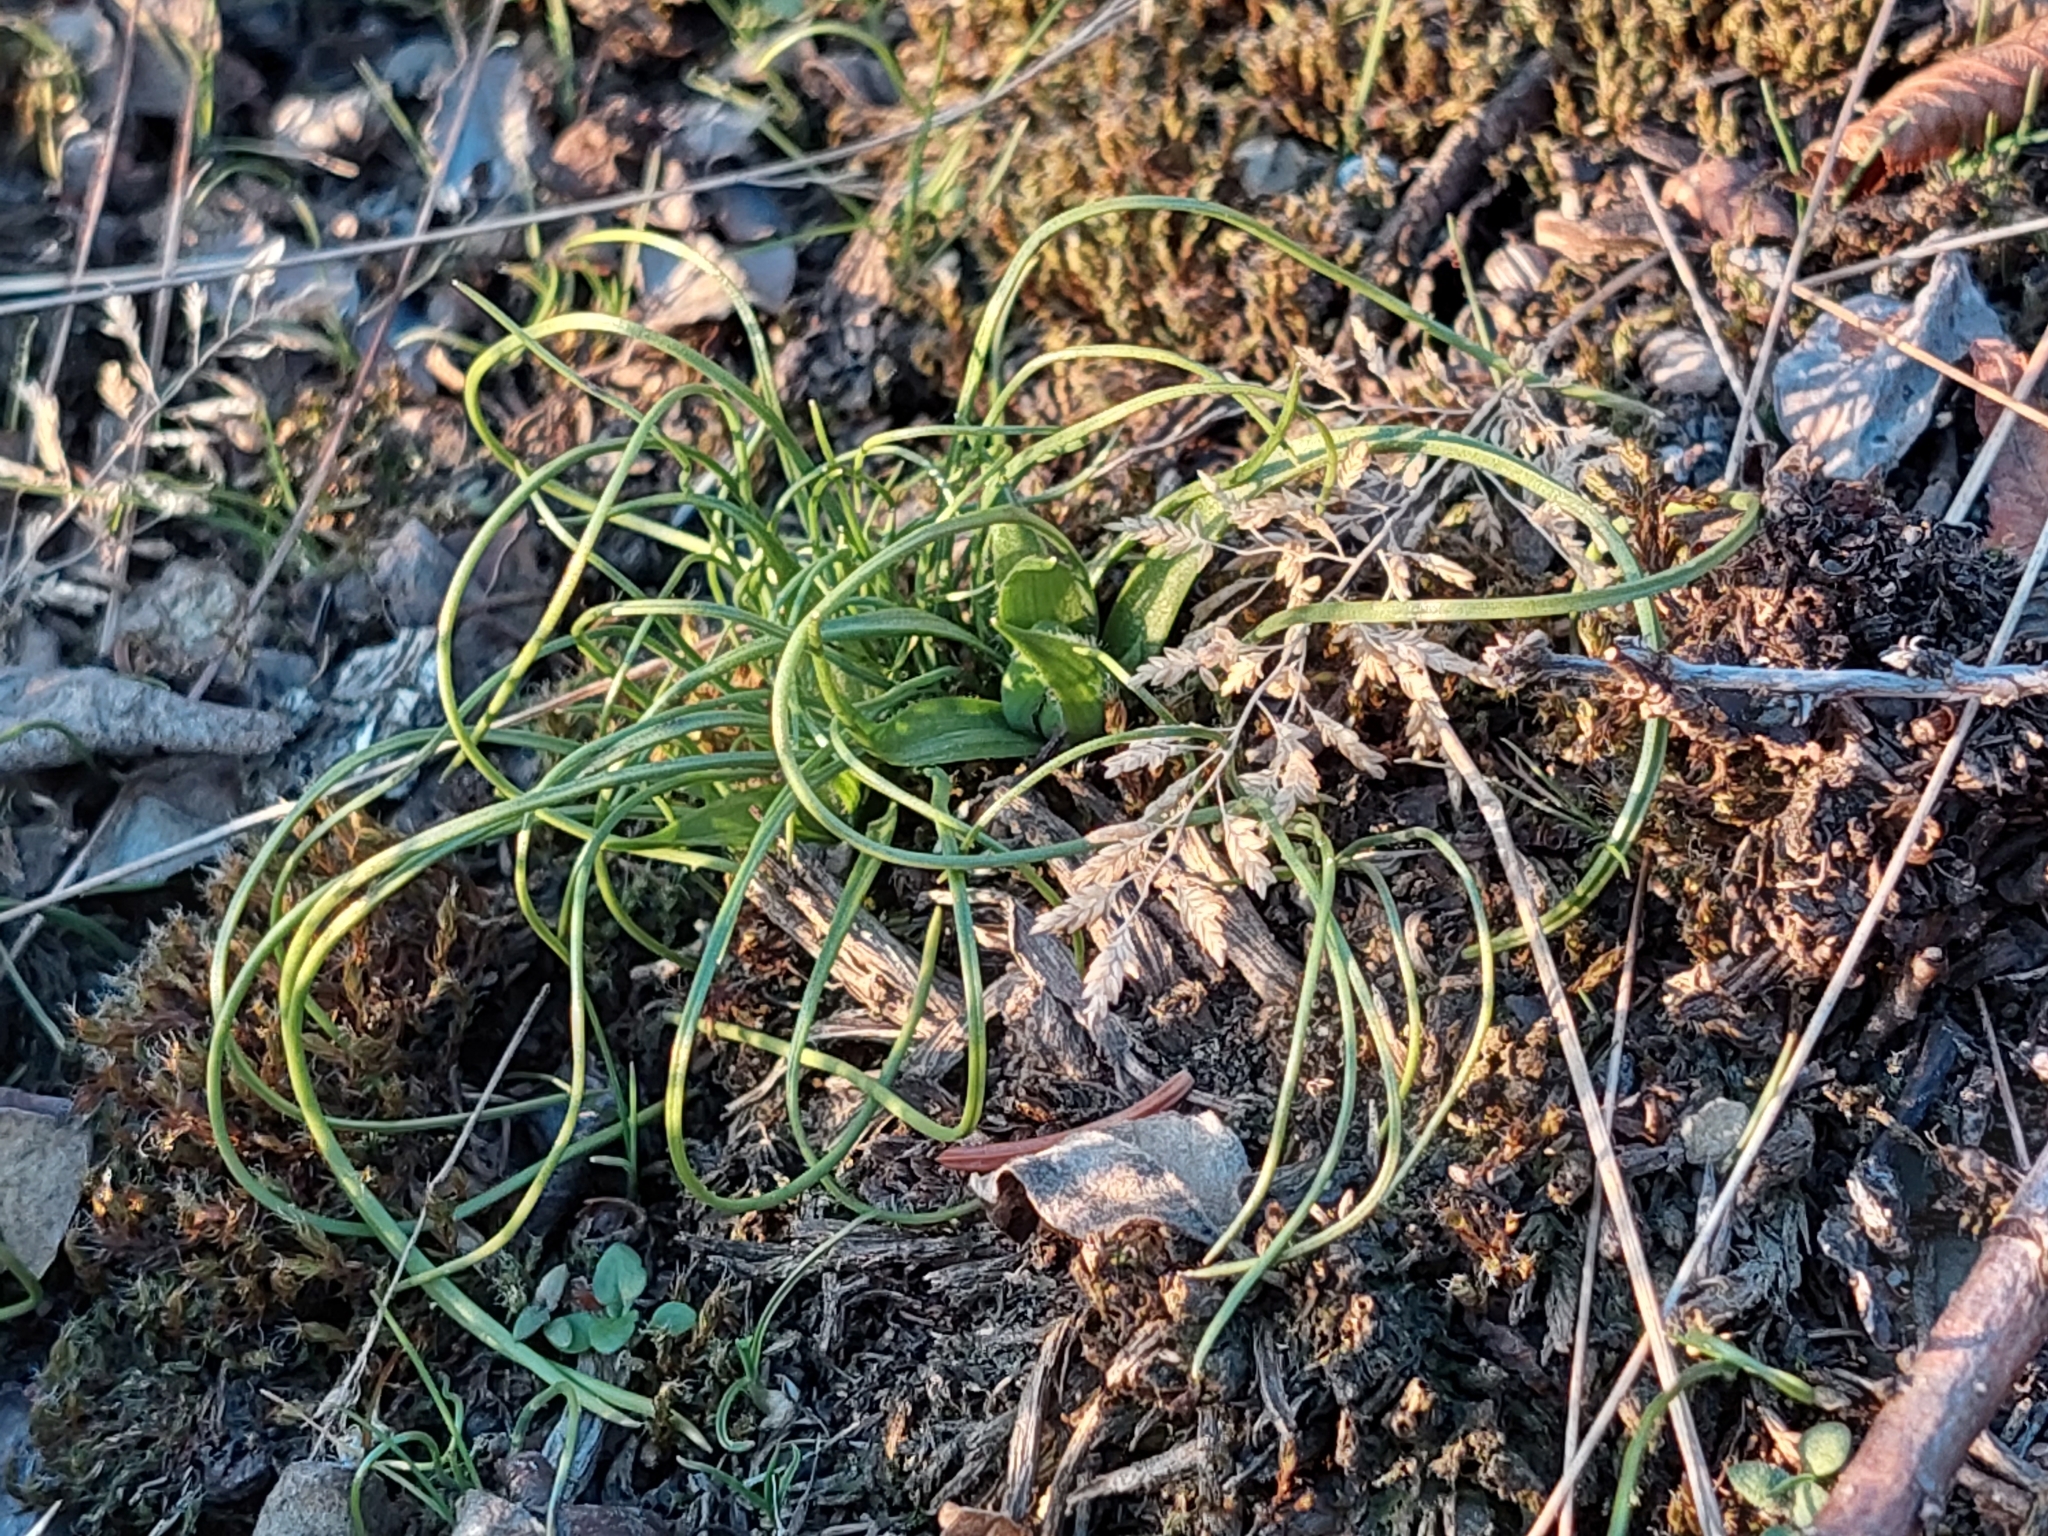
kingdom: Plantae
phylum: Tracheophyta
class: Liliopsida
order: Liliales
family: Liliaceae
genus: Gagea
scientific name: Gagea bohemica
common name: Early star-of-bethlehem
